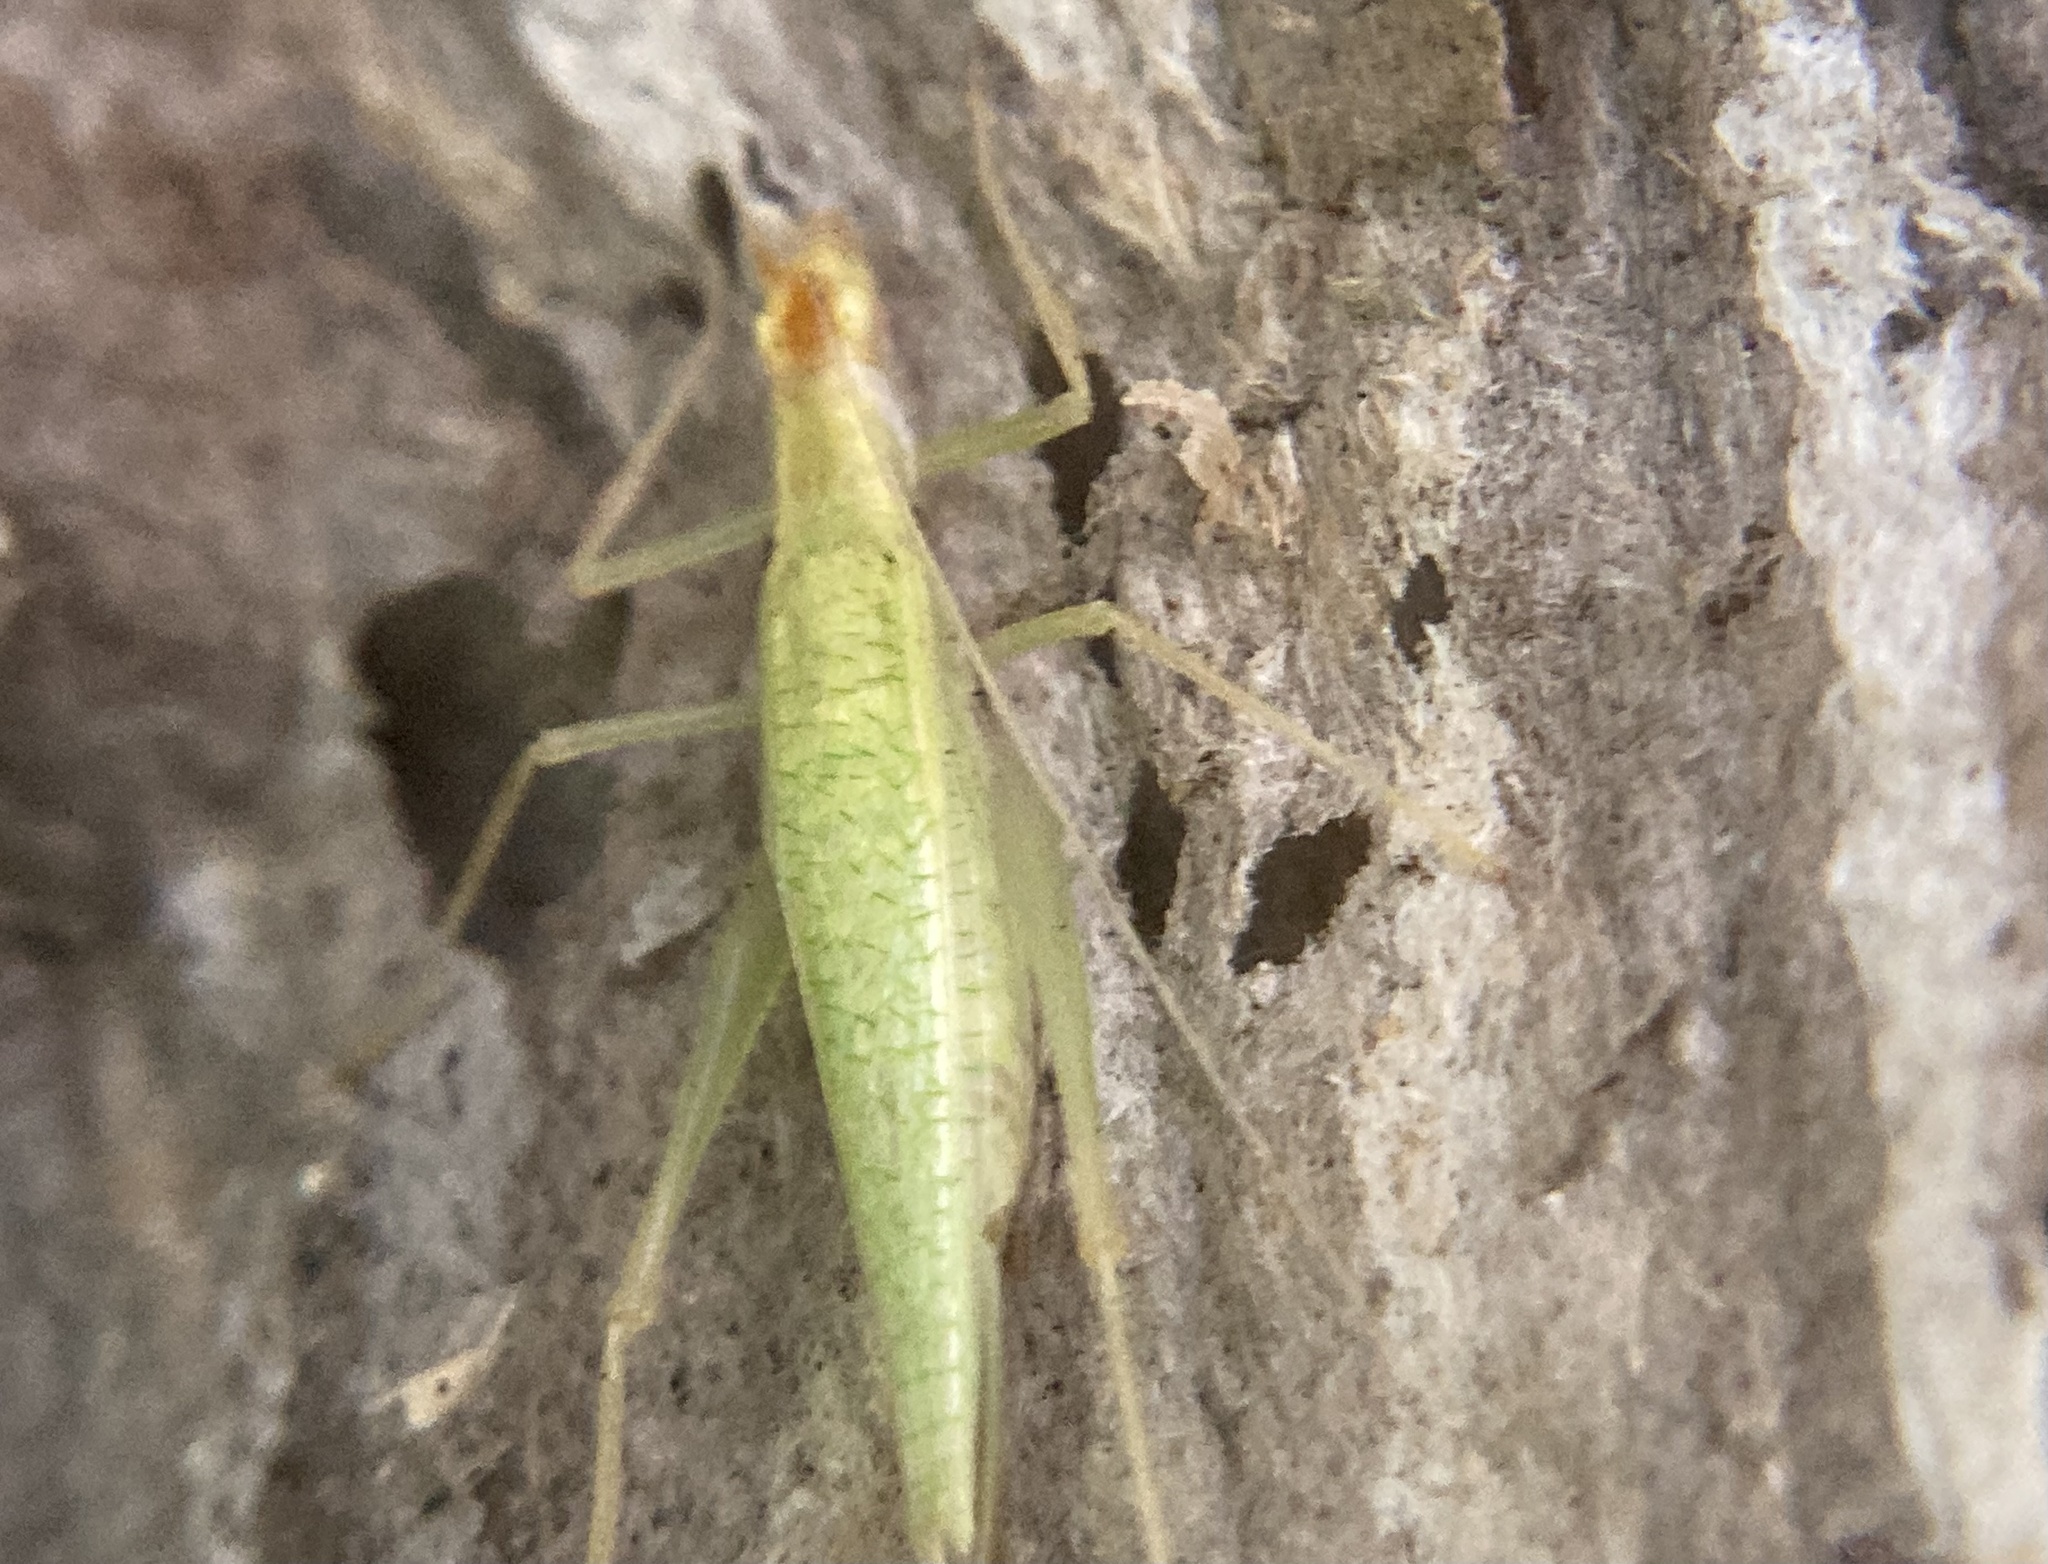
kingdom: Animalia
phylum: Arthropoda
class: Insecta
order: Orthoptera
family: Gryllidae
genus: Oecanthus
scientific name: Oecanthus niveus
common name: Narrow-winged tree cricket
